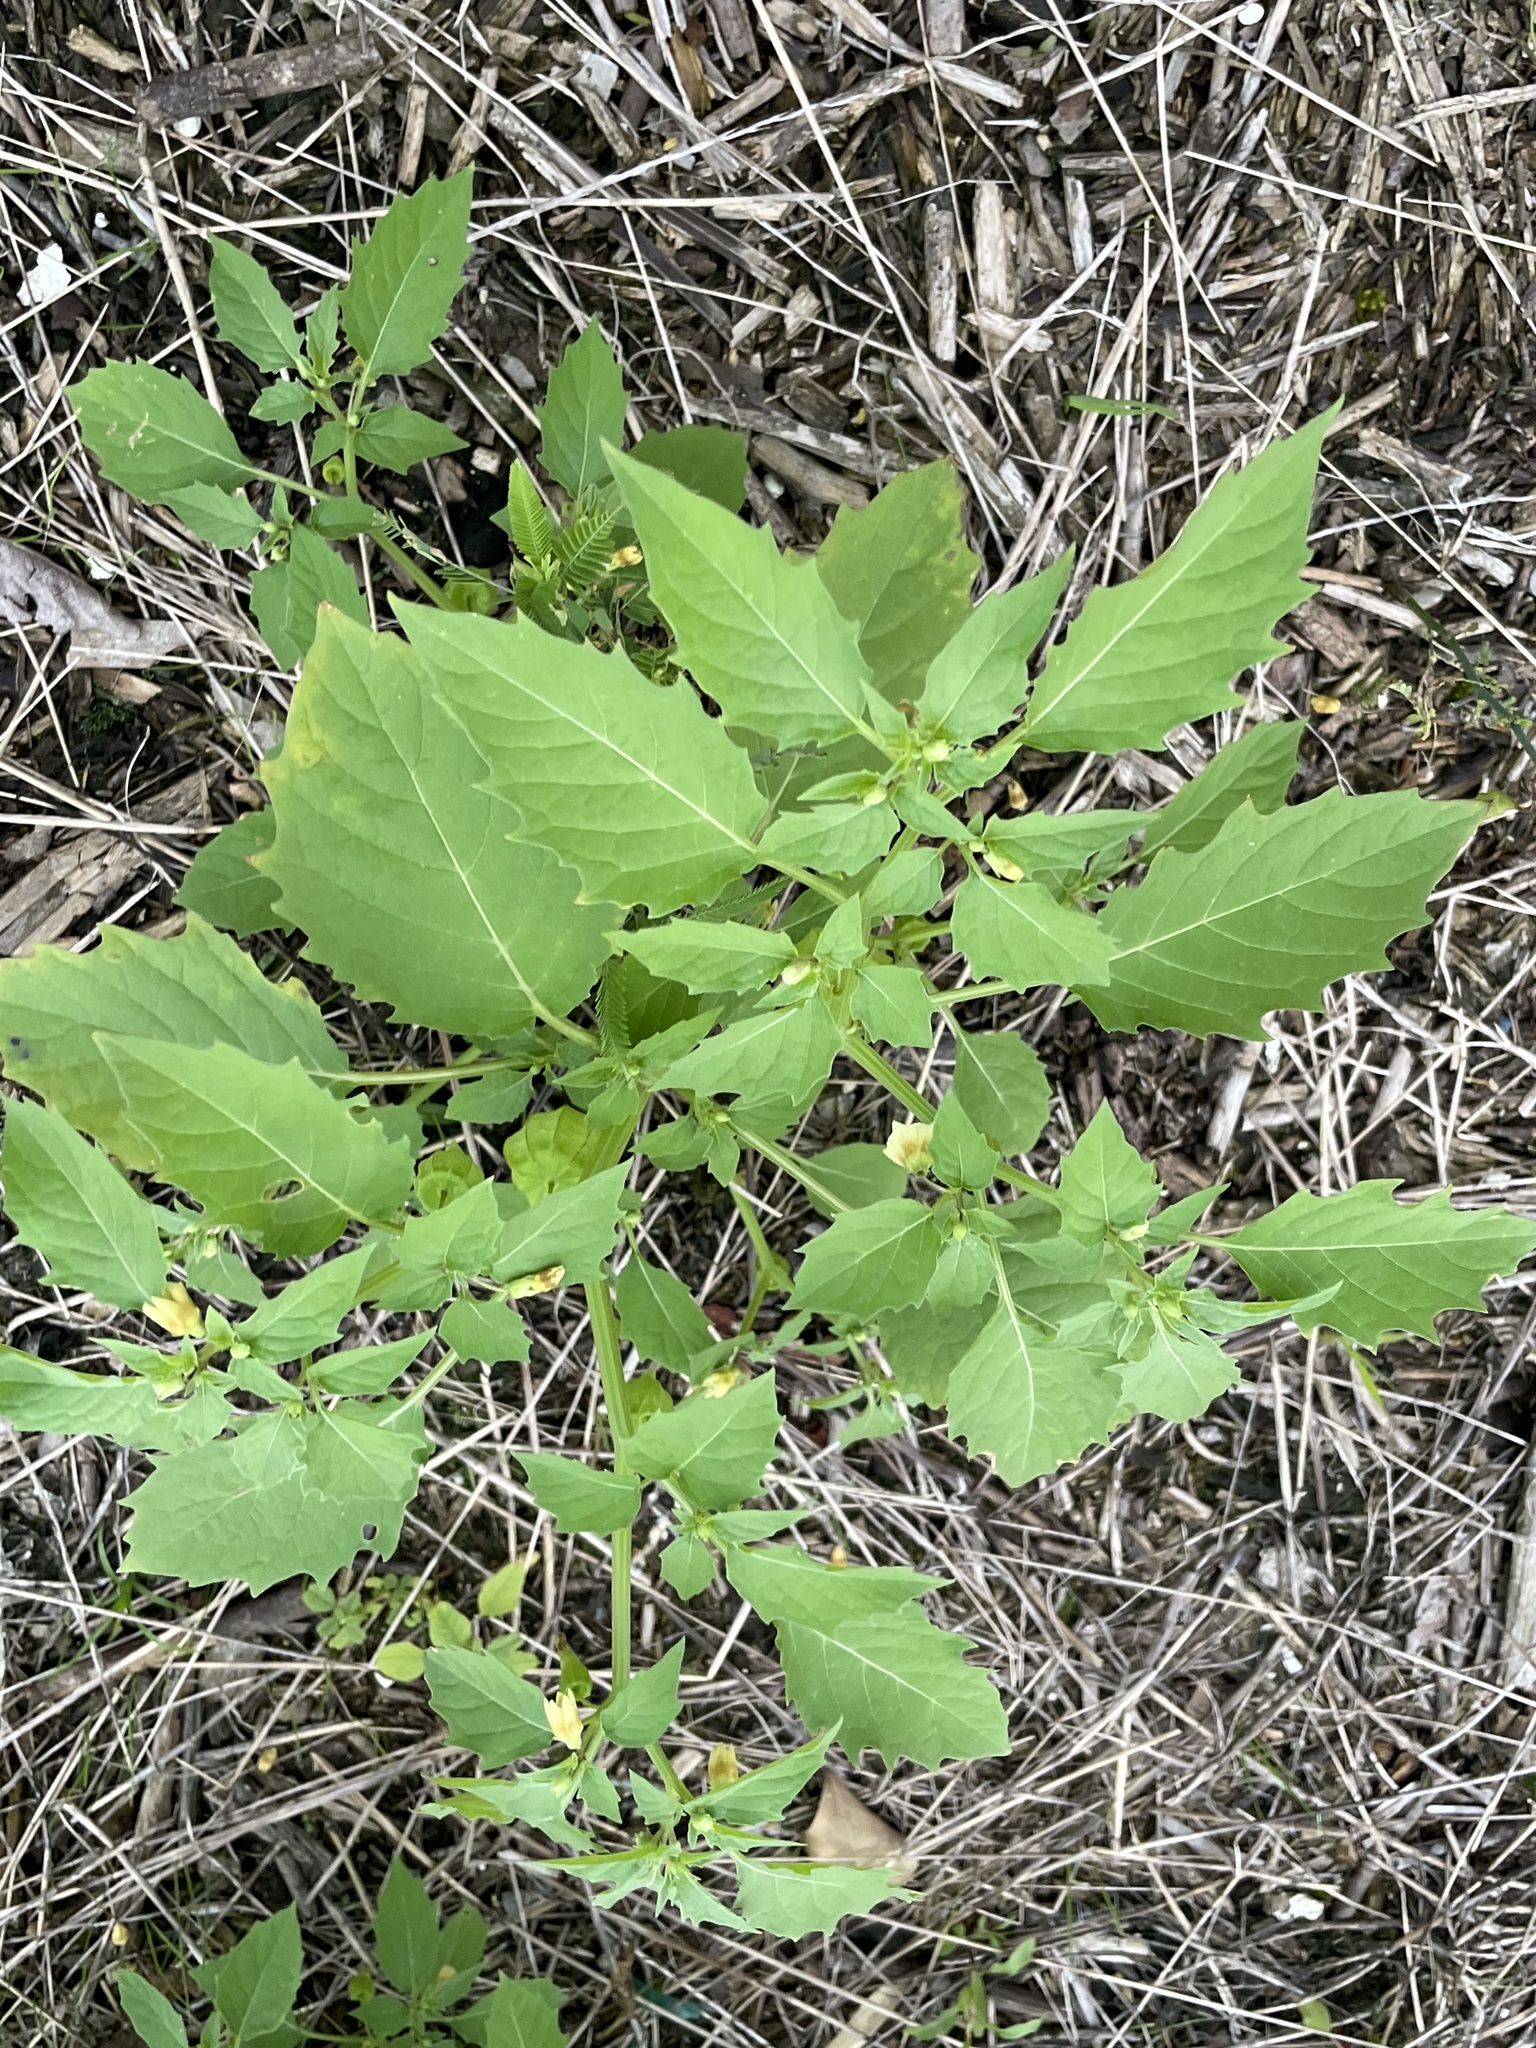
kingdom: Plantae
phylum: Tracheophyta
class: Magnoliopsida
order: Solanales
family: Solanaceae
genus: Physalis
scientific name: Physalis angulata
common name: Angular winter-cherry
